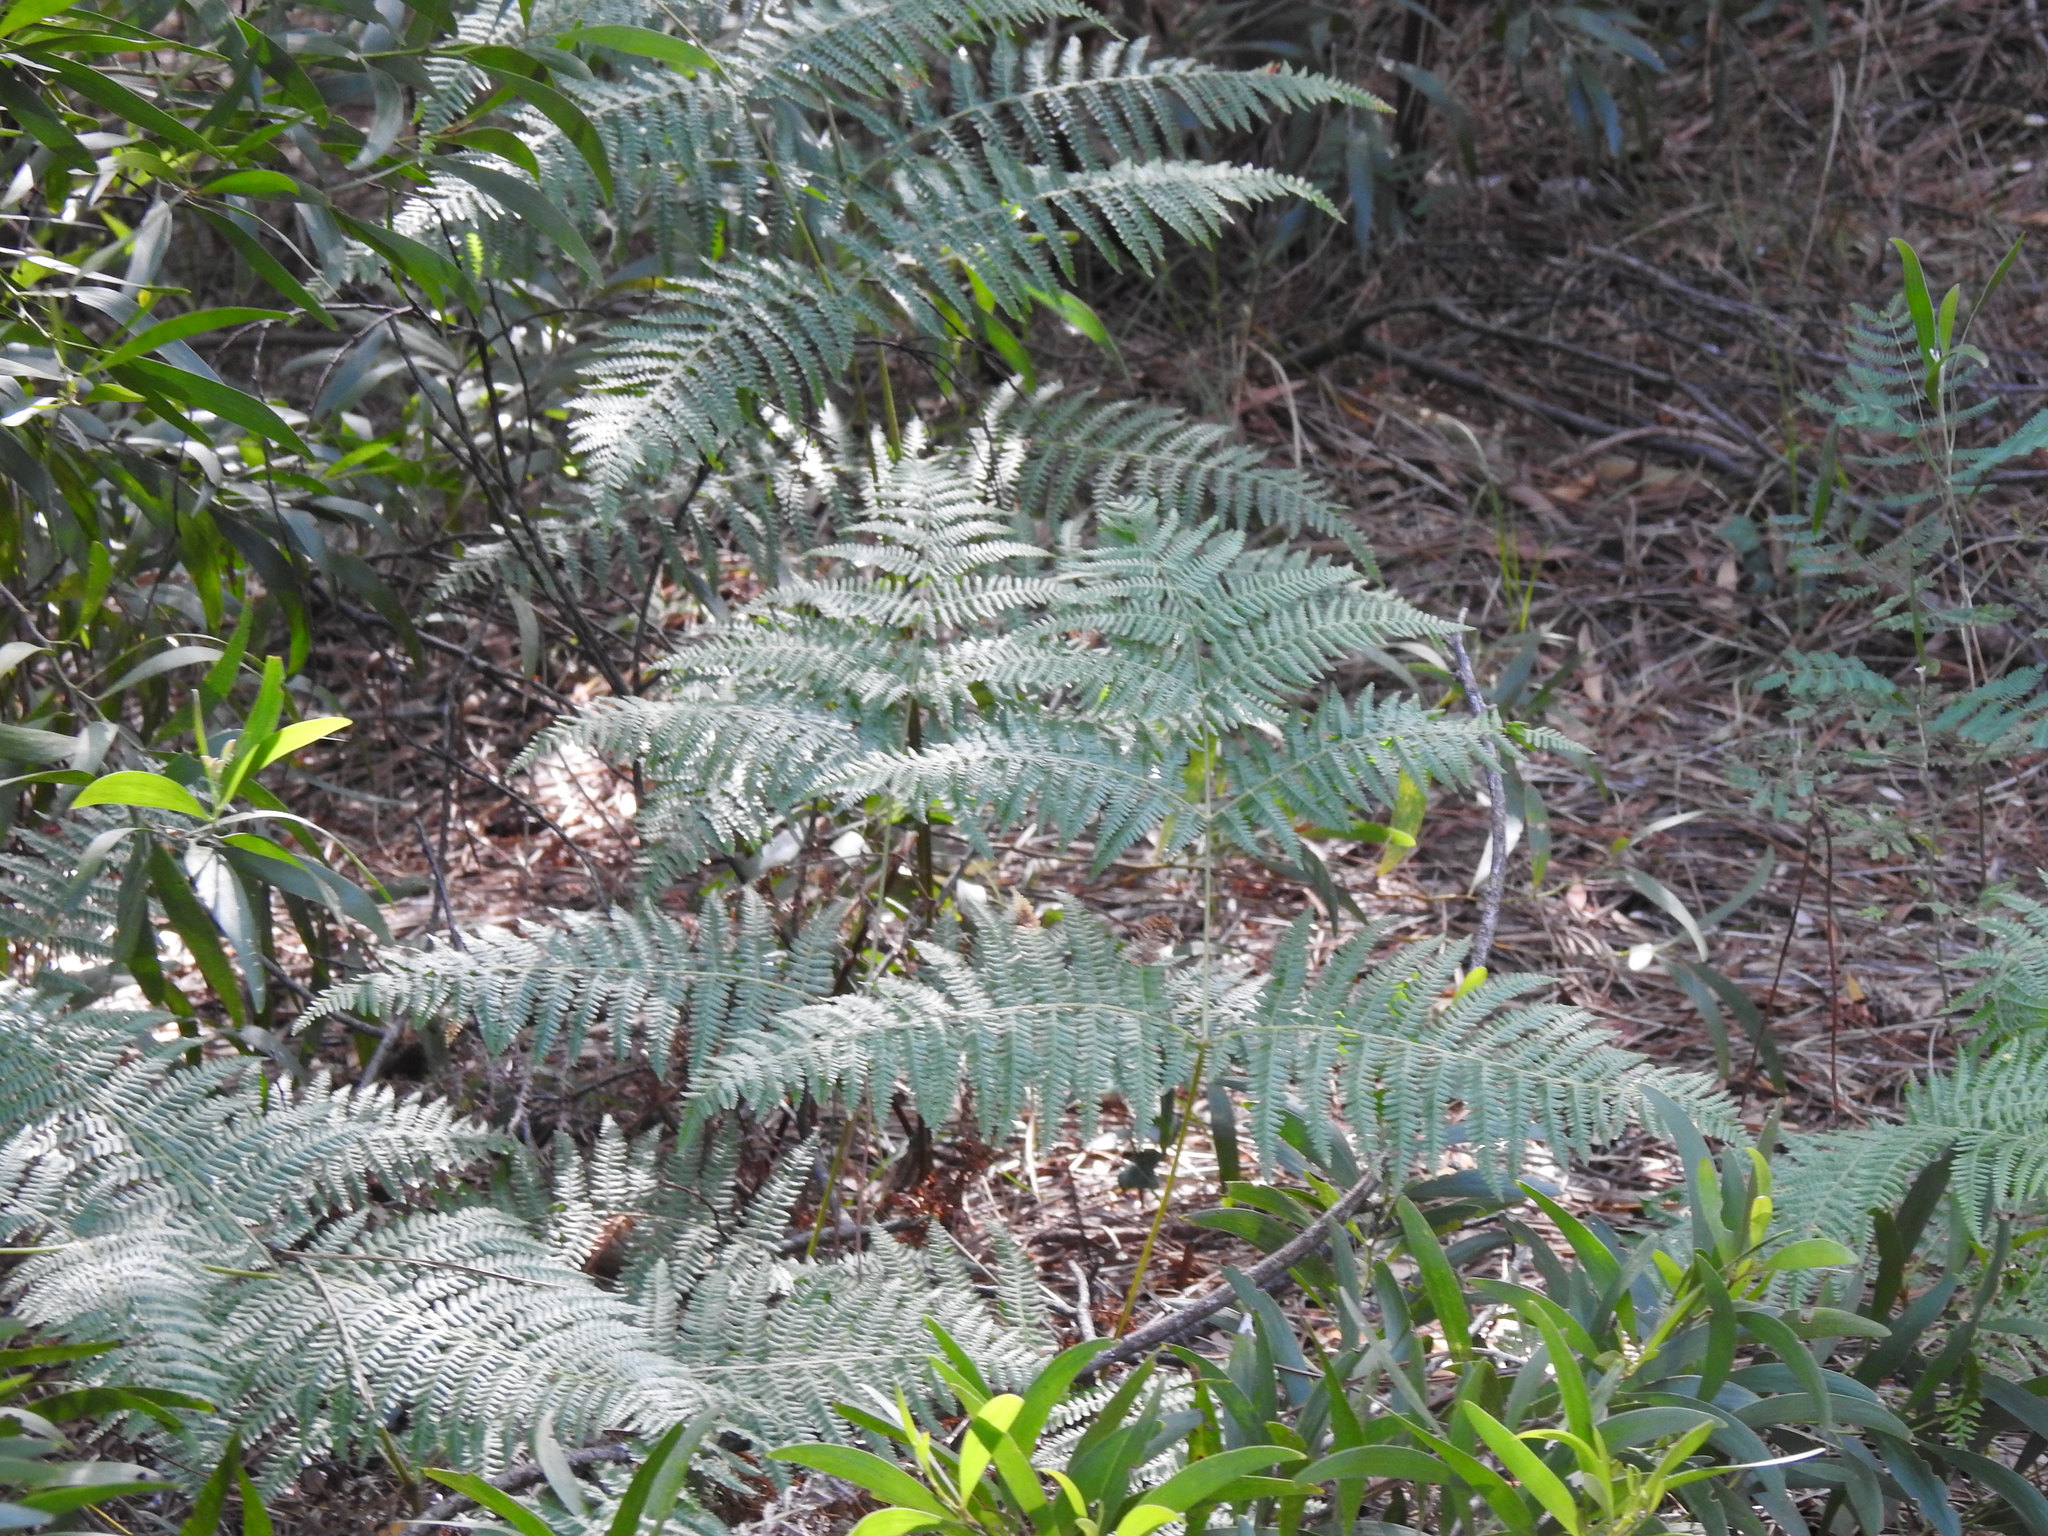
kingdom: Plantae
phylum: Tracheophyta
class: Polypodiopsida
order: Polypodiales
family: Dennstaedtiaceae
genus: Pteridium
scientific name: Pteridium aquilinum
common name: Bracken
